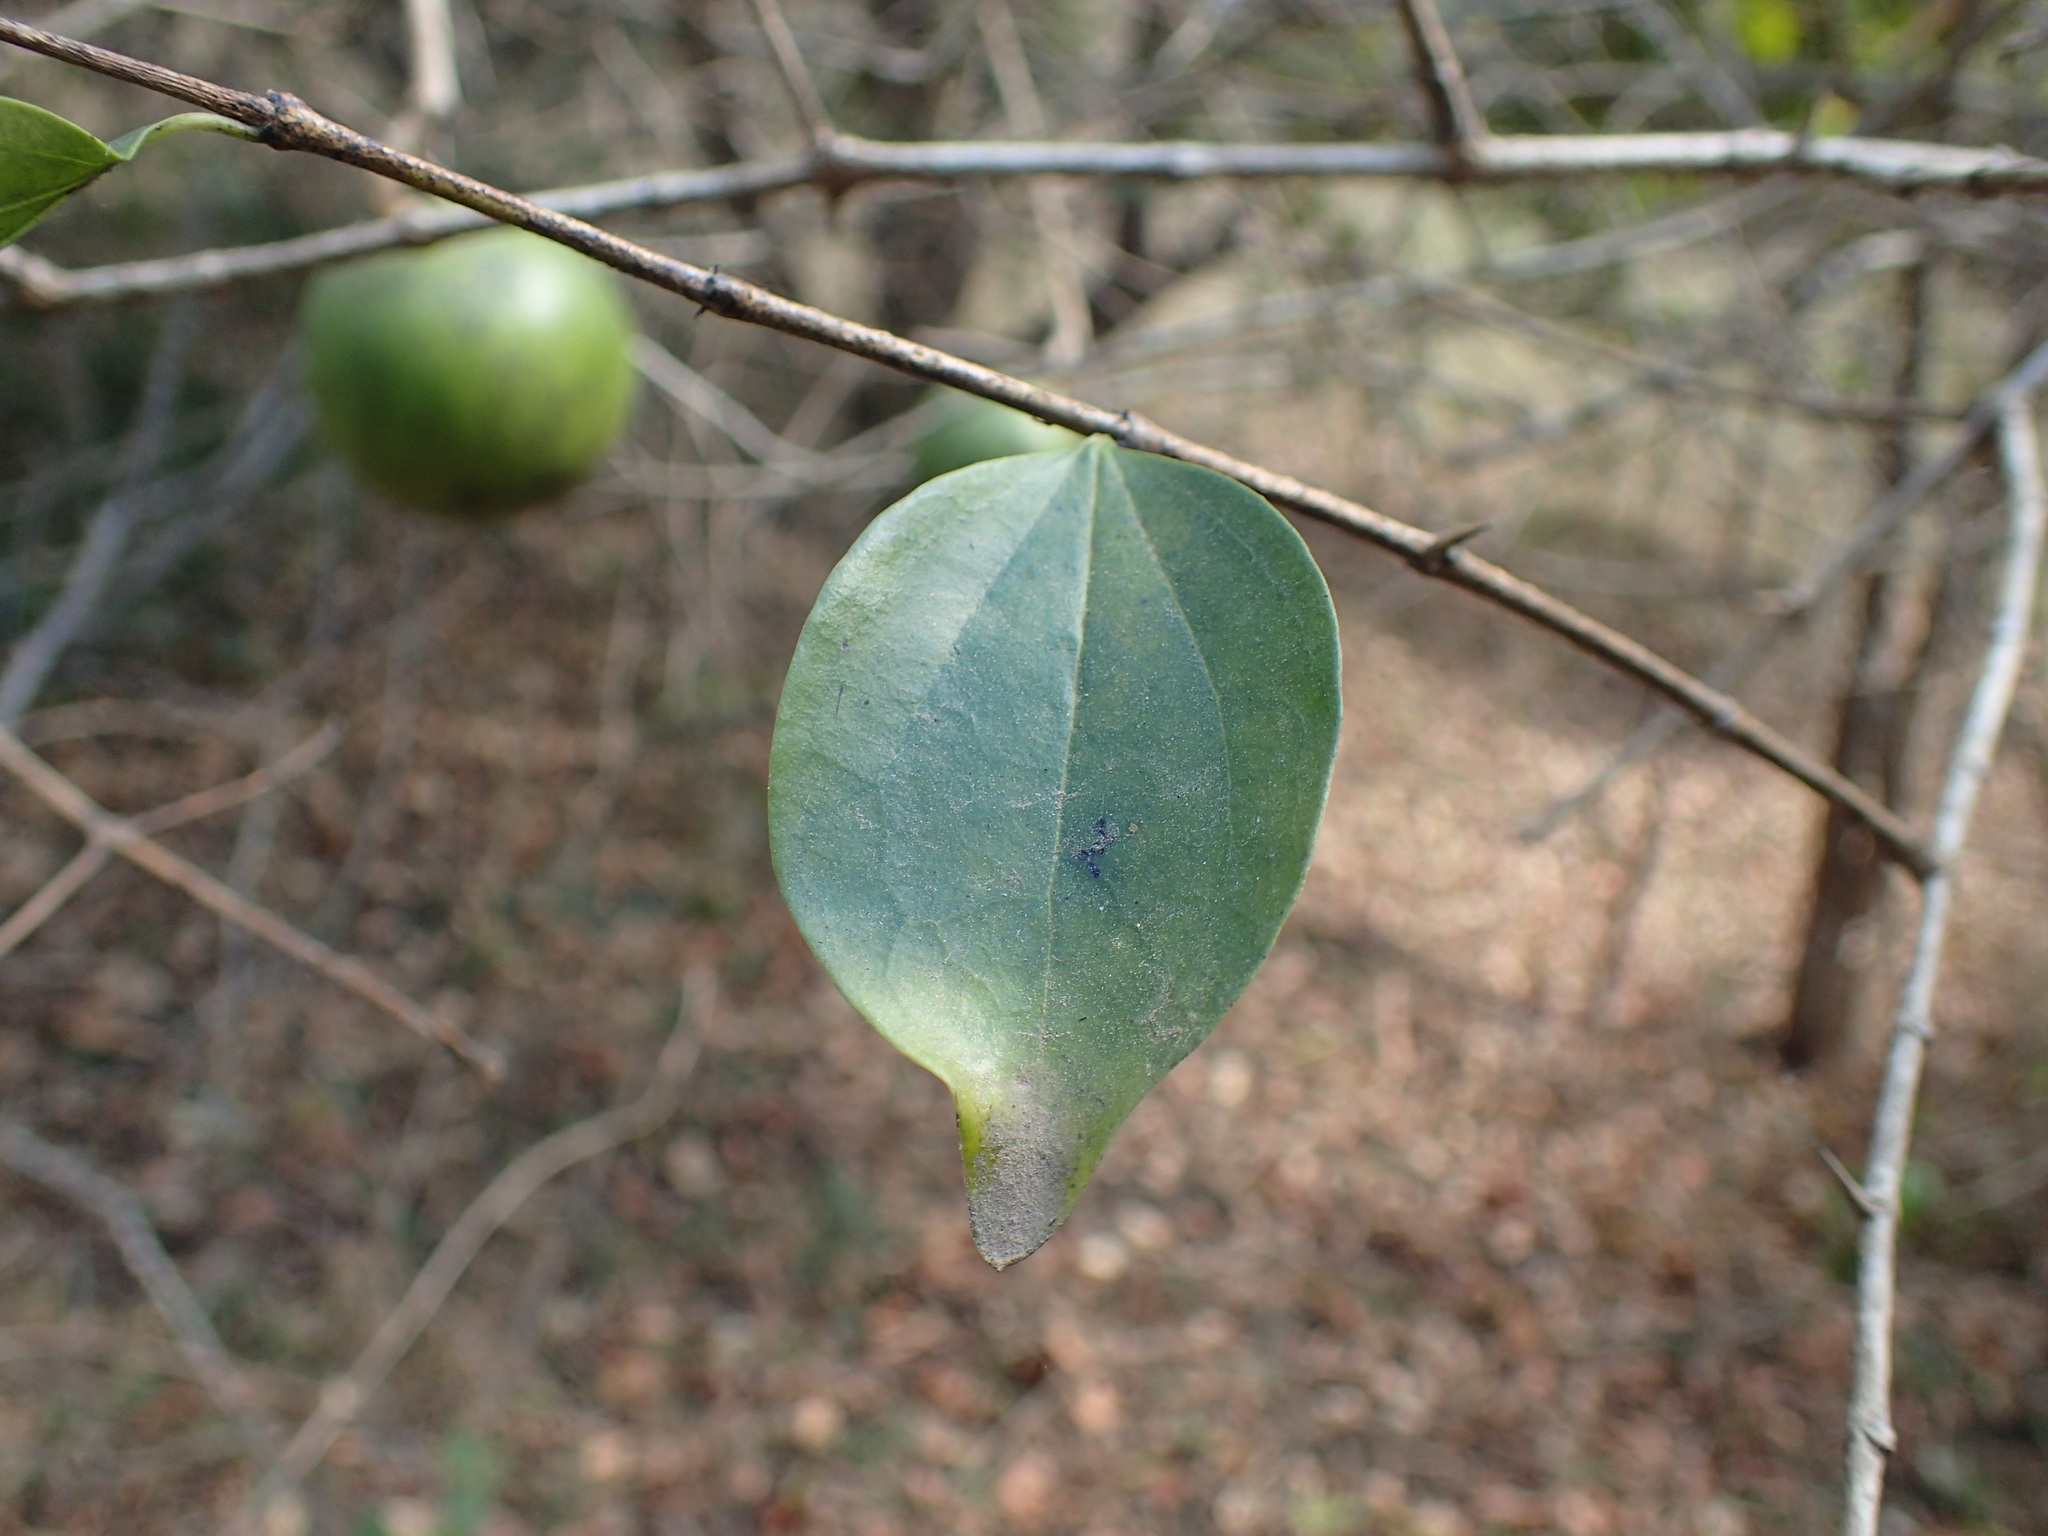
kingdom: Plantae
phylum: Tracheophyta
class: Magnoliopsida
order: Gentianales
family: Loganiaceae
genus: Strychnos
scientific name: Strychnos spinosa
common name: Natal orange
